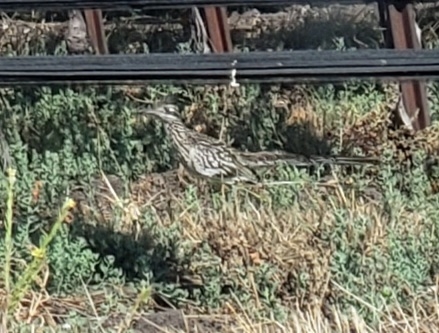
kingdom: Animalia
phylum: Chordata
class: Aves
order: Cuculiformes
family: Cuculidae
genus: Geococcyx
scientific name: Geococcyx californianus
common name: Greater roadrunner
